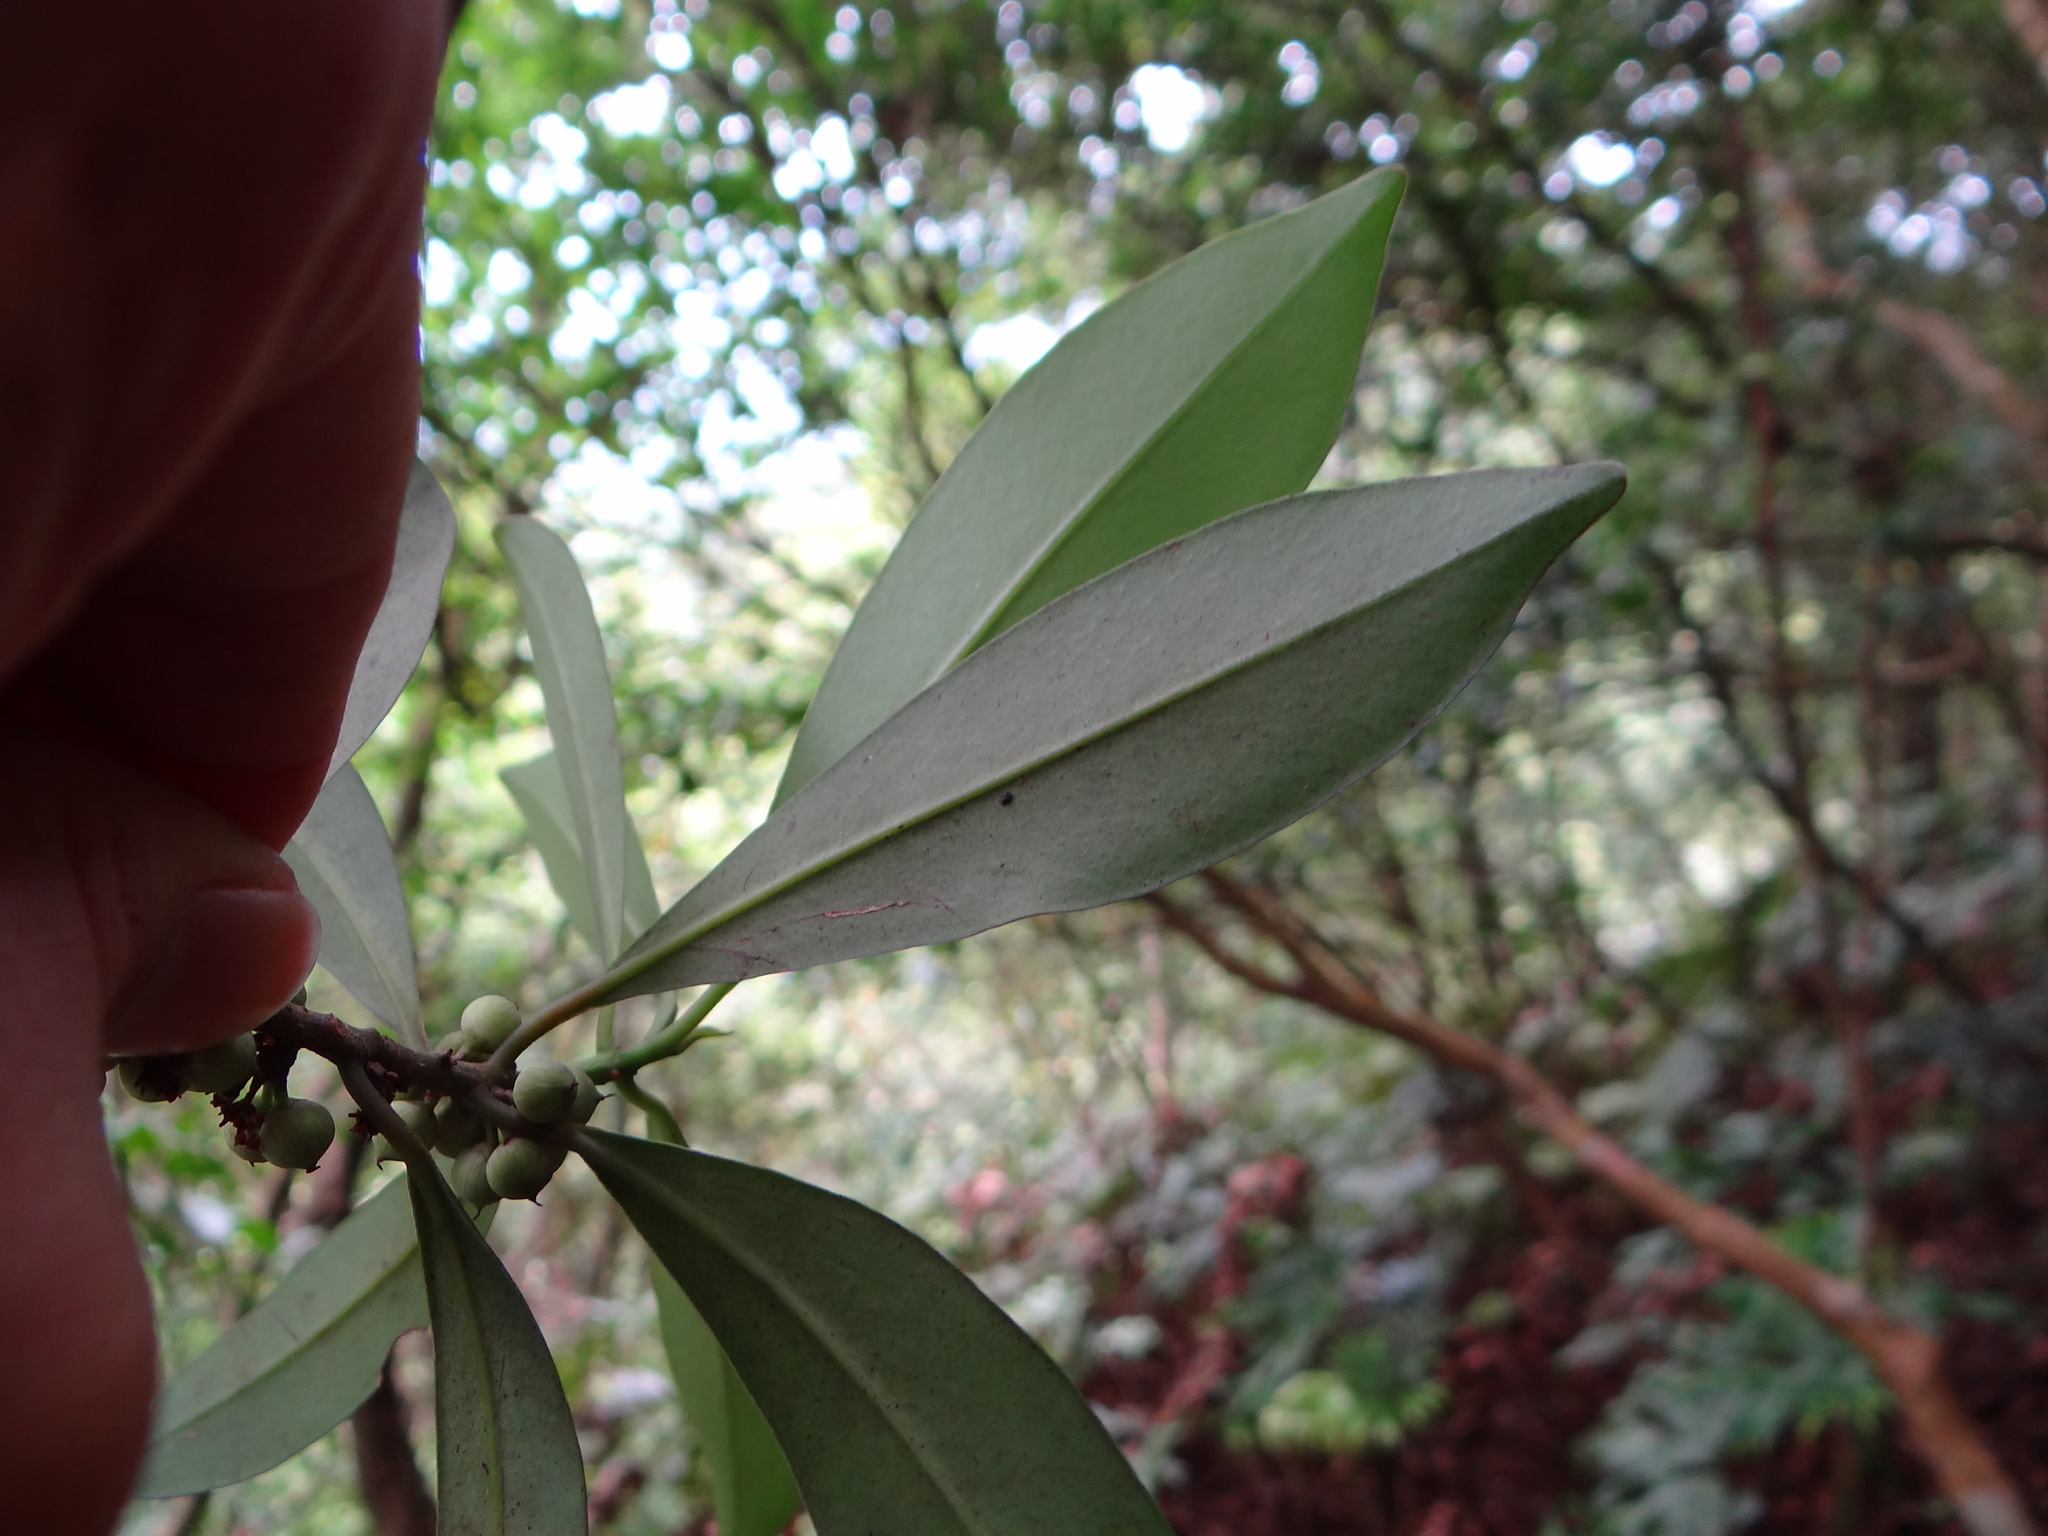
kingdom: Plantae
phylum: Tracheophyta
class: Magnoliopsida
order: Ericales
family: Primulaceae
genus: Myrsine
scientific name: Myrsine seguinii
